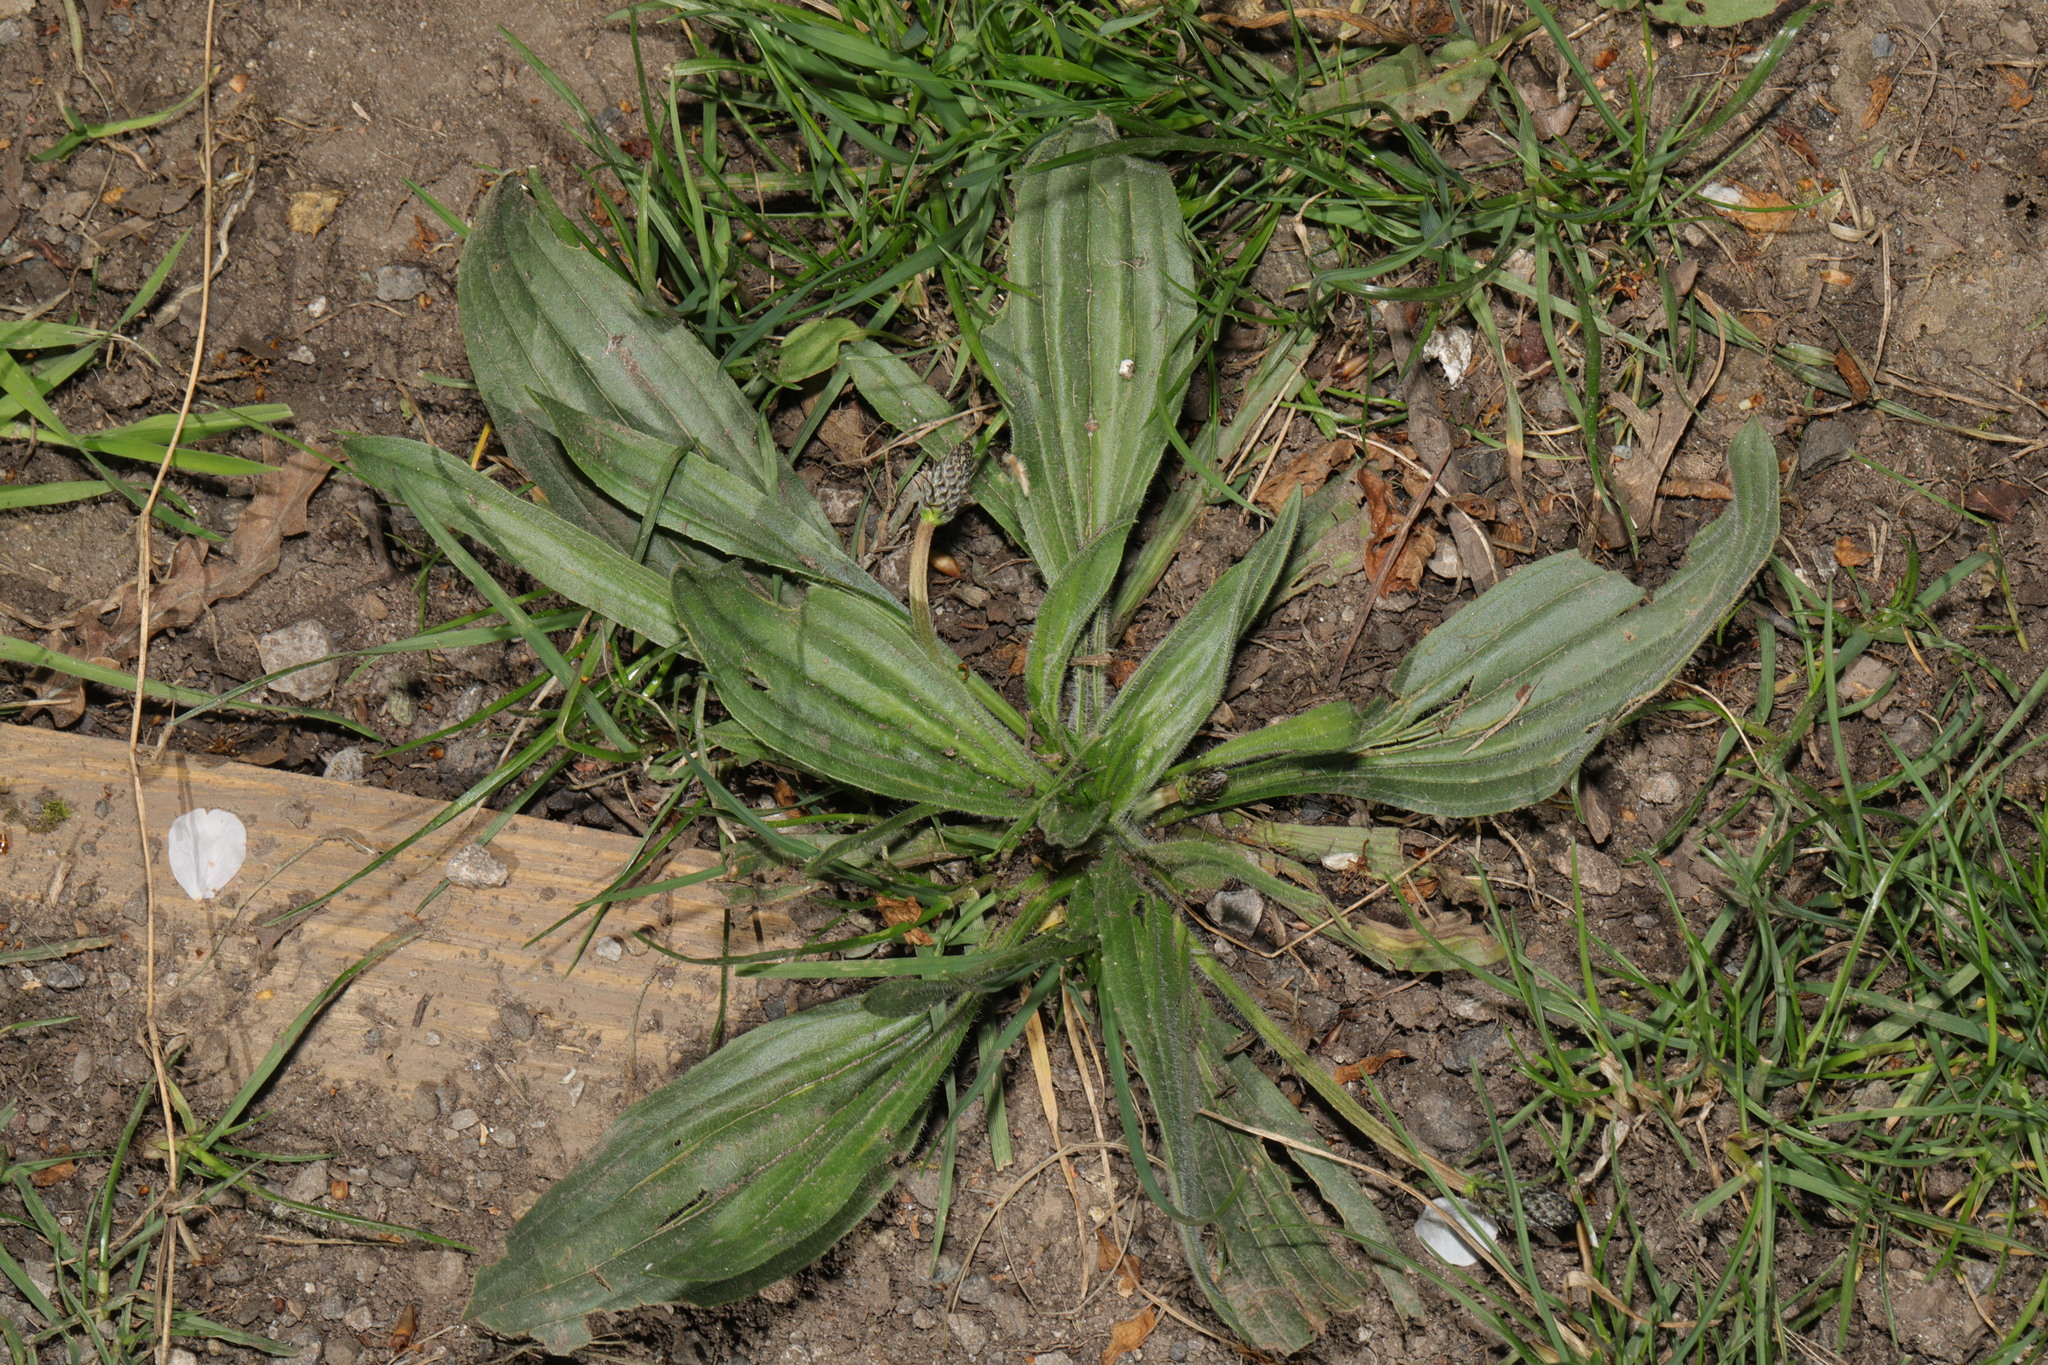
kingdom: Plantae
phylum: Tracheophyta
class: Magnoliopsida
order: Lamiales
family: Plantaginaceae
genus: Plantago
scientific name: Plantago lanceolata
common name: Ribwort plantain
